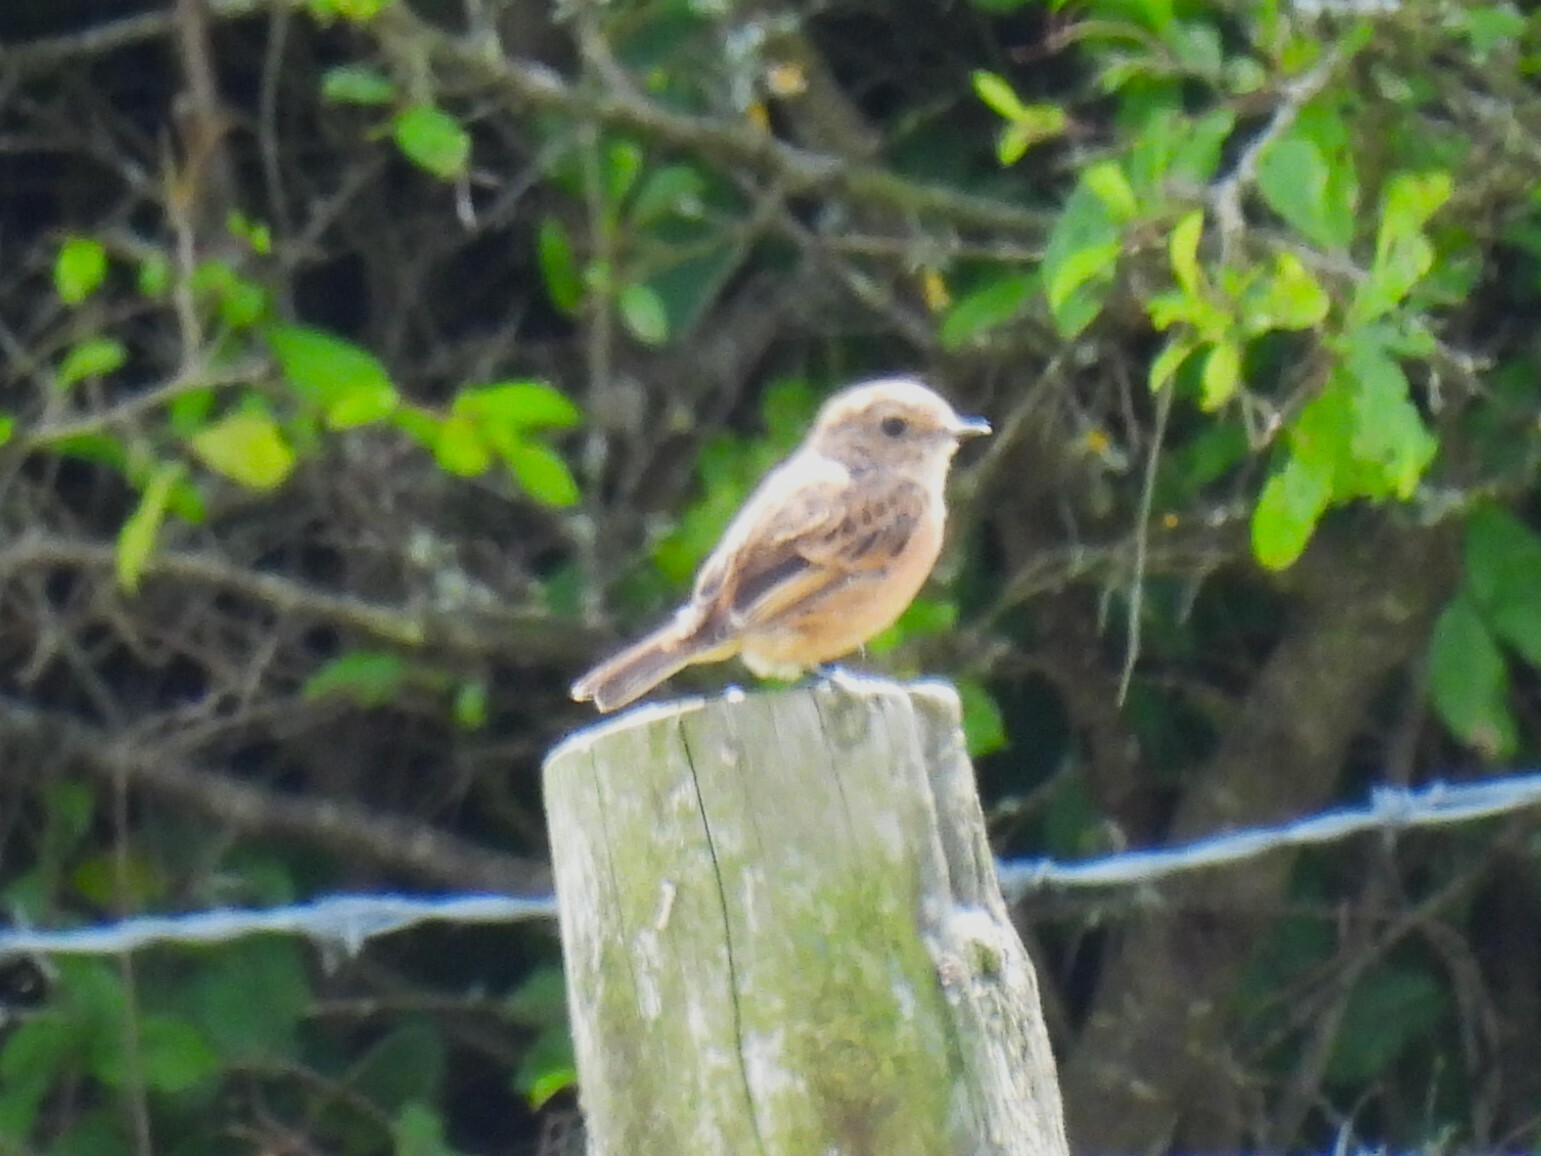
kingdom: Animalia
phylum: Chordata
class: Aves
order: Passeriformes
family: Muscicapidae
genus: Saxicola
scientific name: Saxicola rubicola
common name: European stonechat
